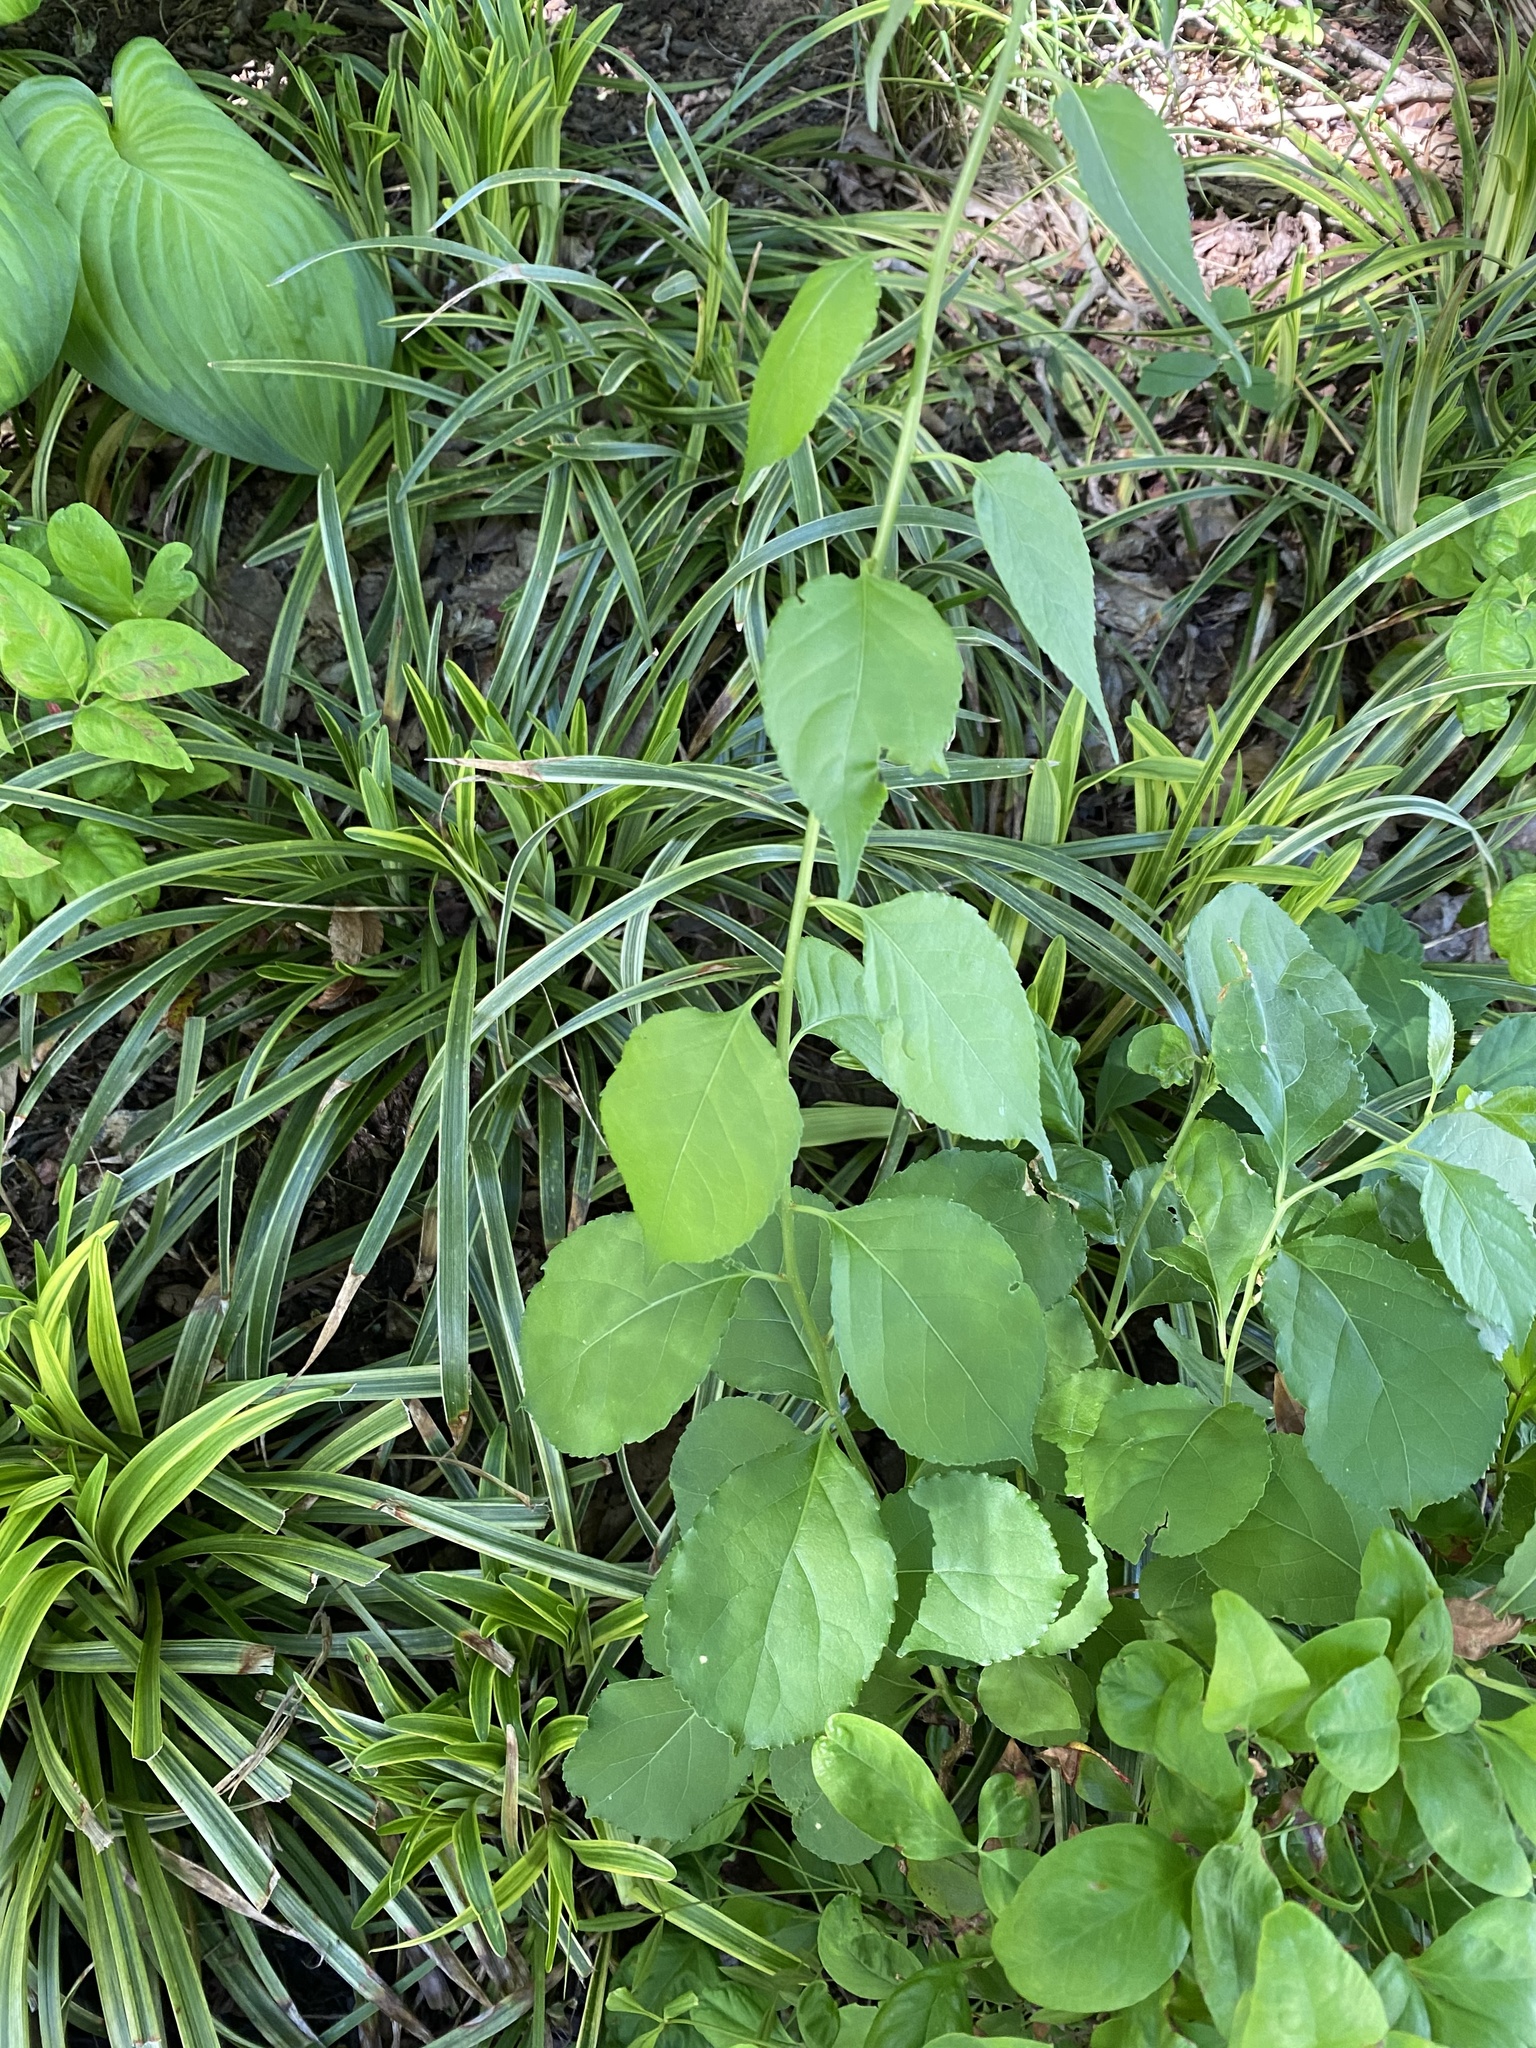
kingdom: Plantae
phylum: Tracheophyta
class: Magnoliopsida
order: Celastrales
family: Celastraceae
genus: Celastrus
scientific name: Celastrus orbiculatus
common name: Oriental bittersweet
